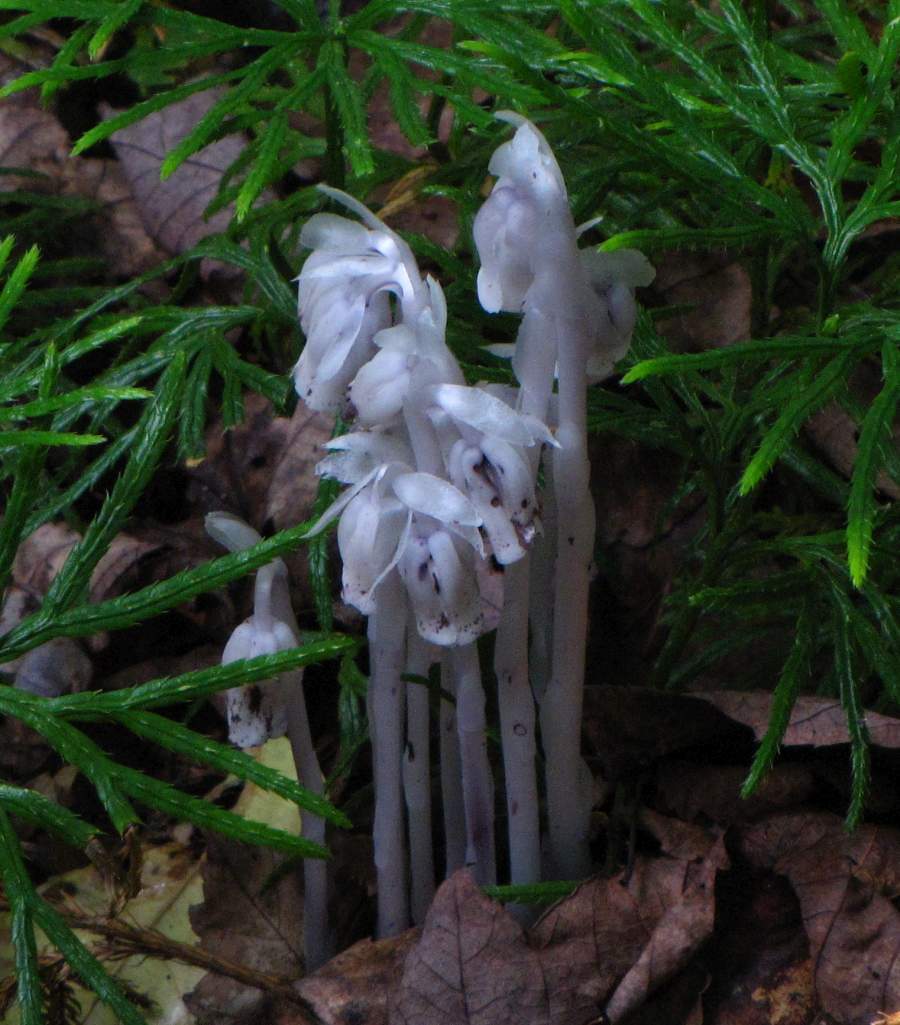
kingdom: Plantae
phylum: Tracheophyta
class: Magnoliopsida
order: Ericales
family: Ericaceae
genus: Monotropa
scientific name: Monotropa uniflora
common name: Convulsion root
